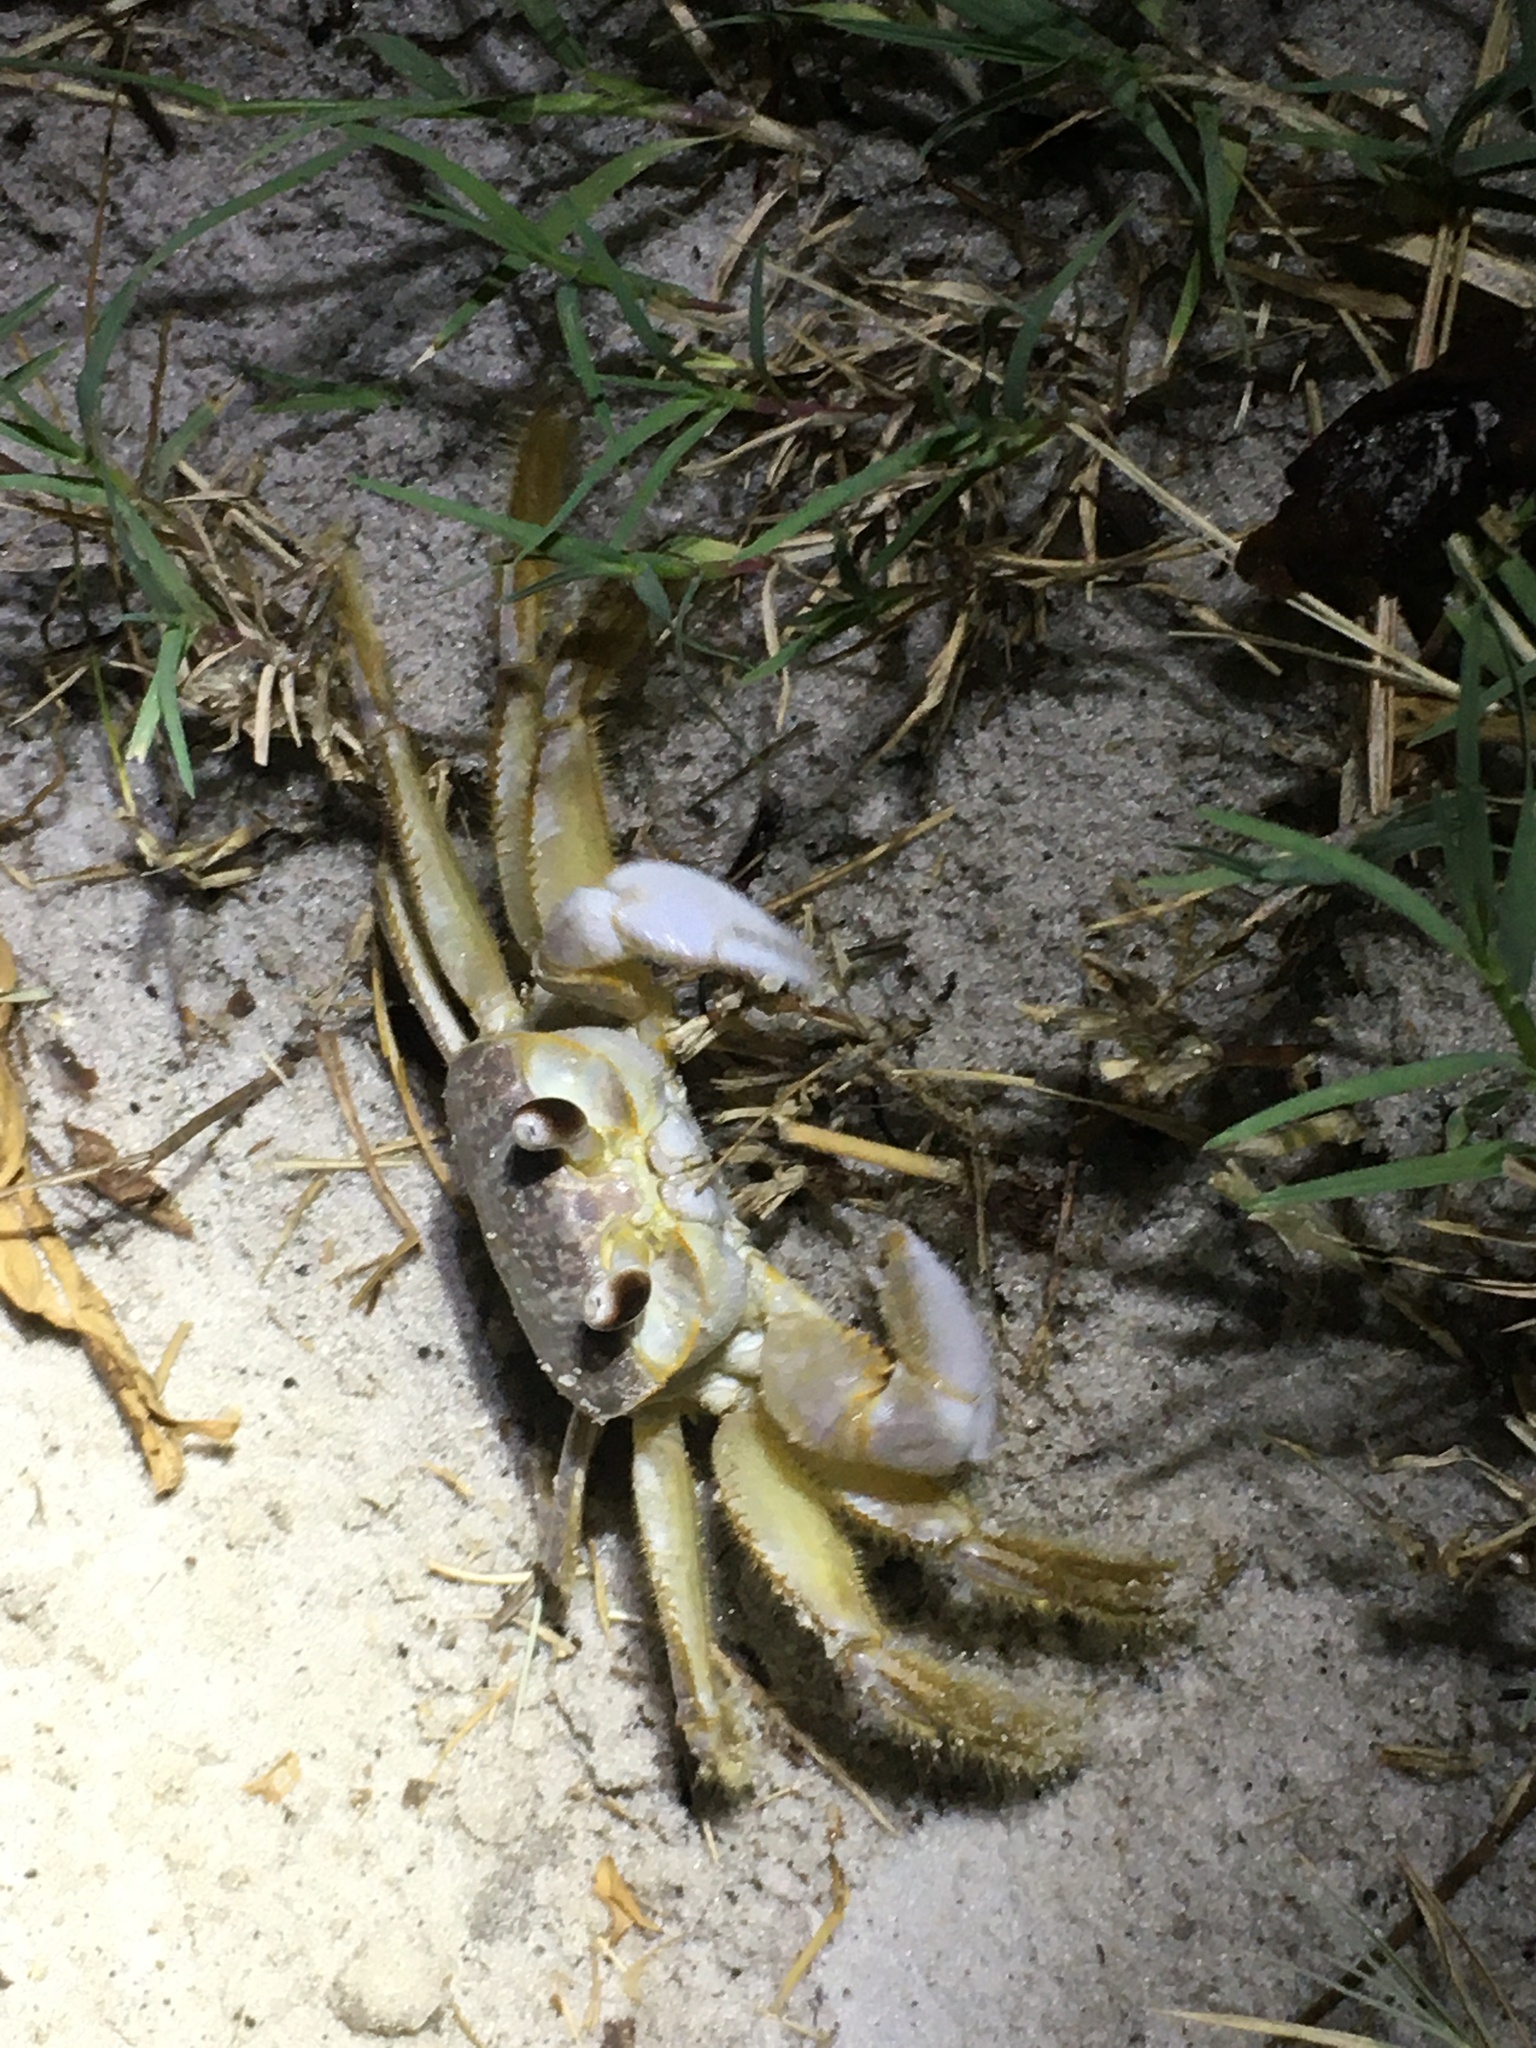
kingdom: Animalia
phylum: Arthropoda
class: Malacostraca
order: Decapoda
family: Ocypodidae
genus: Ocypode
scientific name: Ocypode quadrata
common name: Ghost crab
